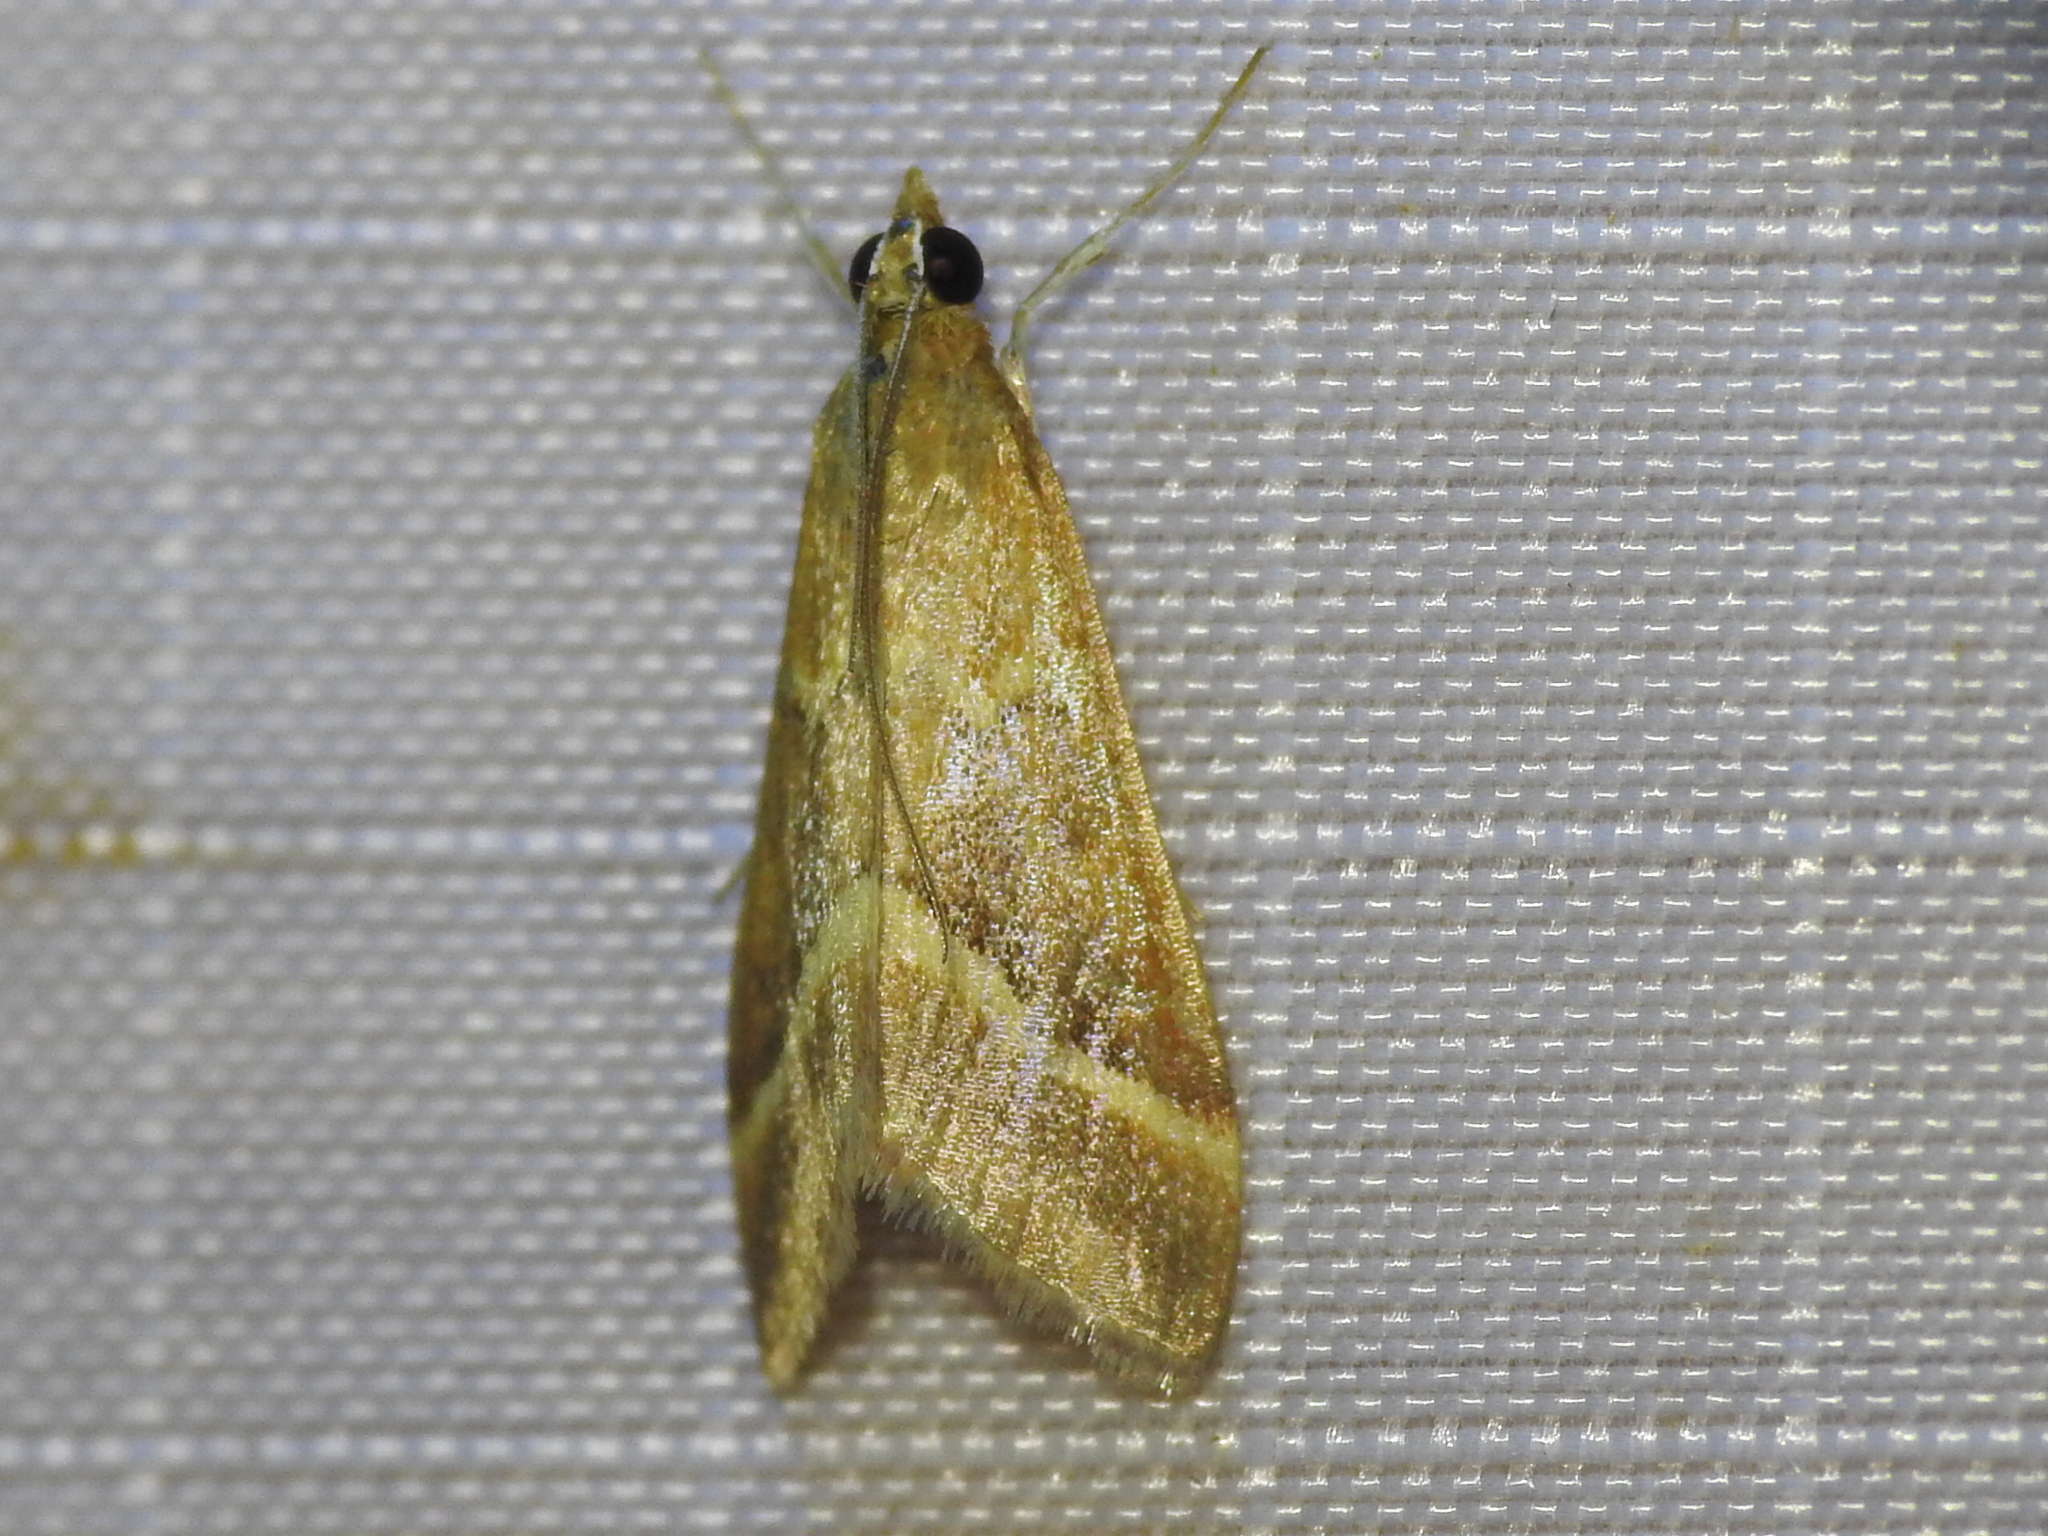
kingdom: Animalia
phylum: Arthropoda
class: Insecta
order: Lepidoptera
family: Crambidae
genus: Pyrausta
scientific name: Pyrausta volupialis
